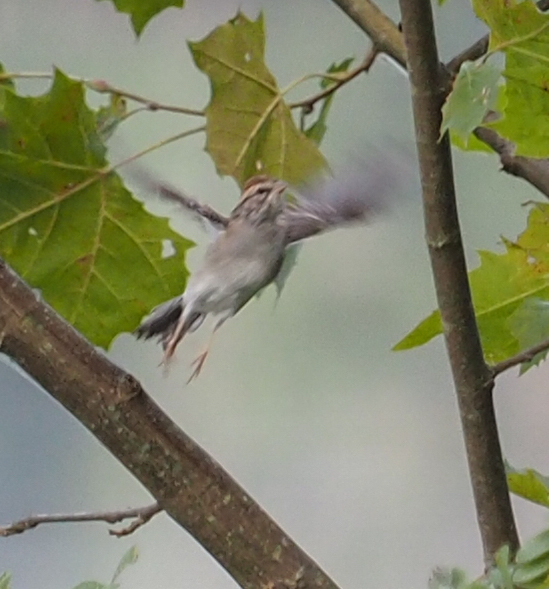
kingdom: Animalia
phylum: Chordata
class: Aves
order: Passeriformes
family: Passerellidae
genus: Spizella
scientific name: Spizella passerina
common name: Chipping sparrow
